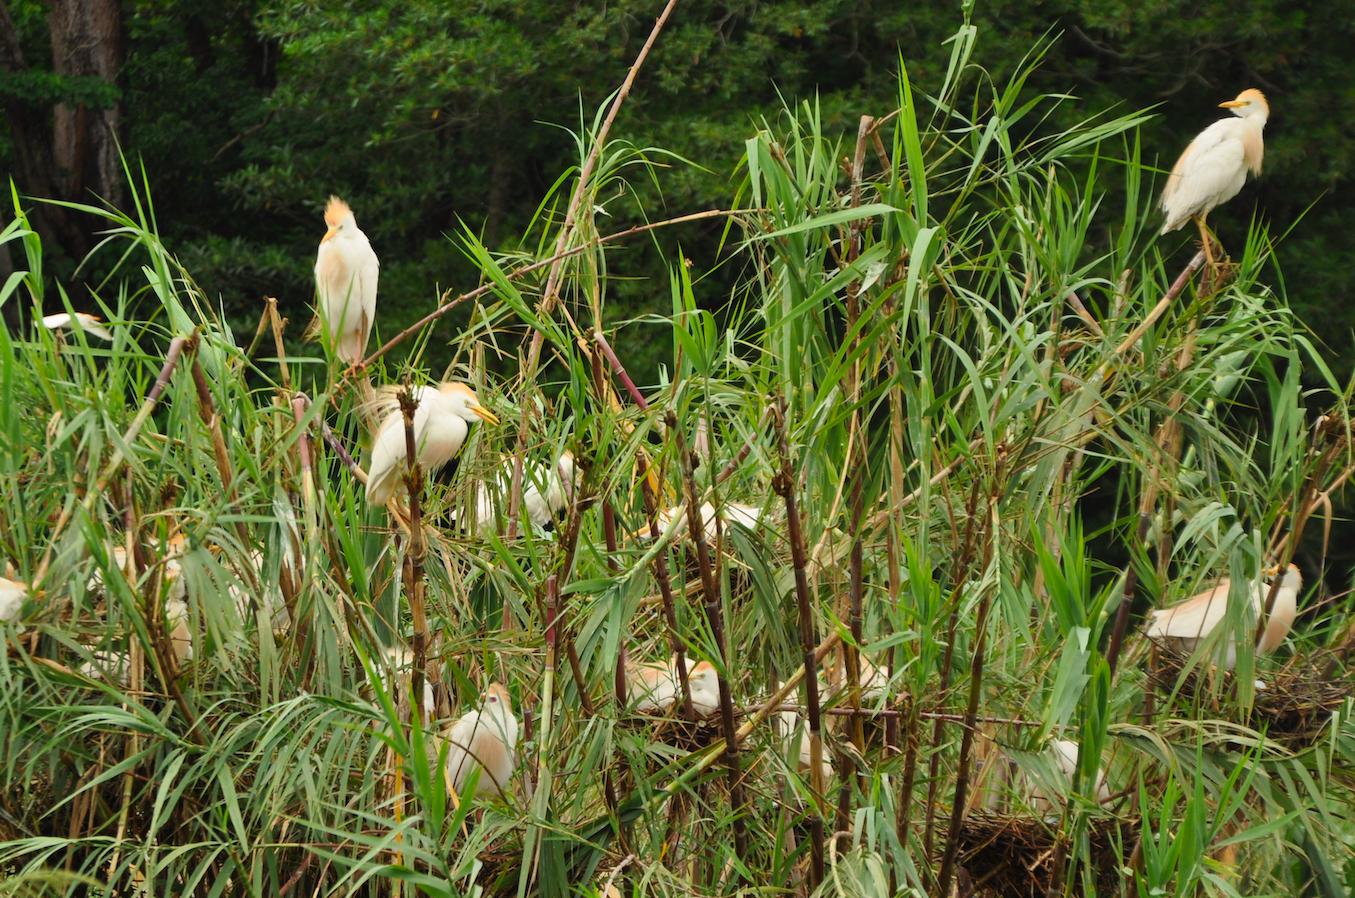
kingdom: Animalia
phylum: Chordata
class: Aves
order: Pelecaniformes
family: Ardeidae
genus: Bubulcus
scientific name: Bubulcus ibis
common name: Cattle egret
